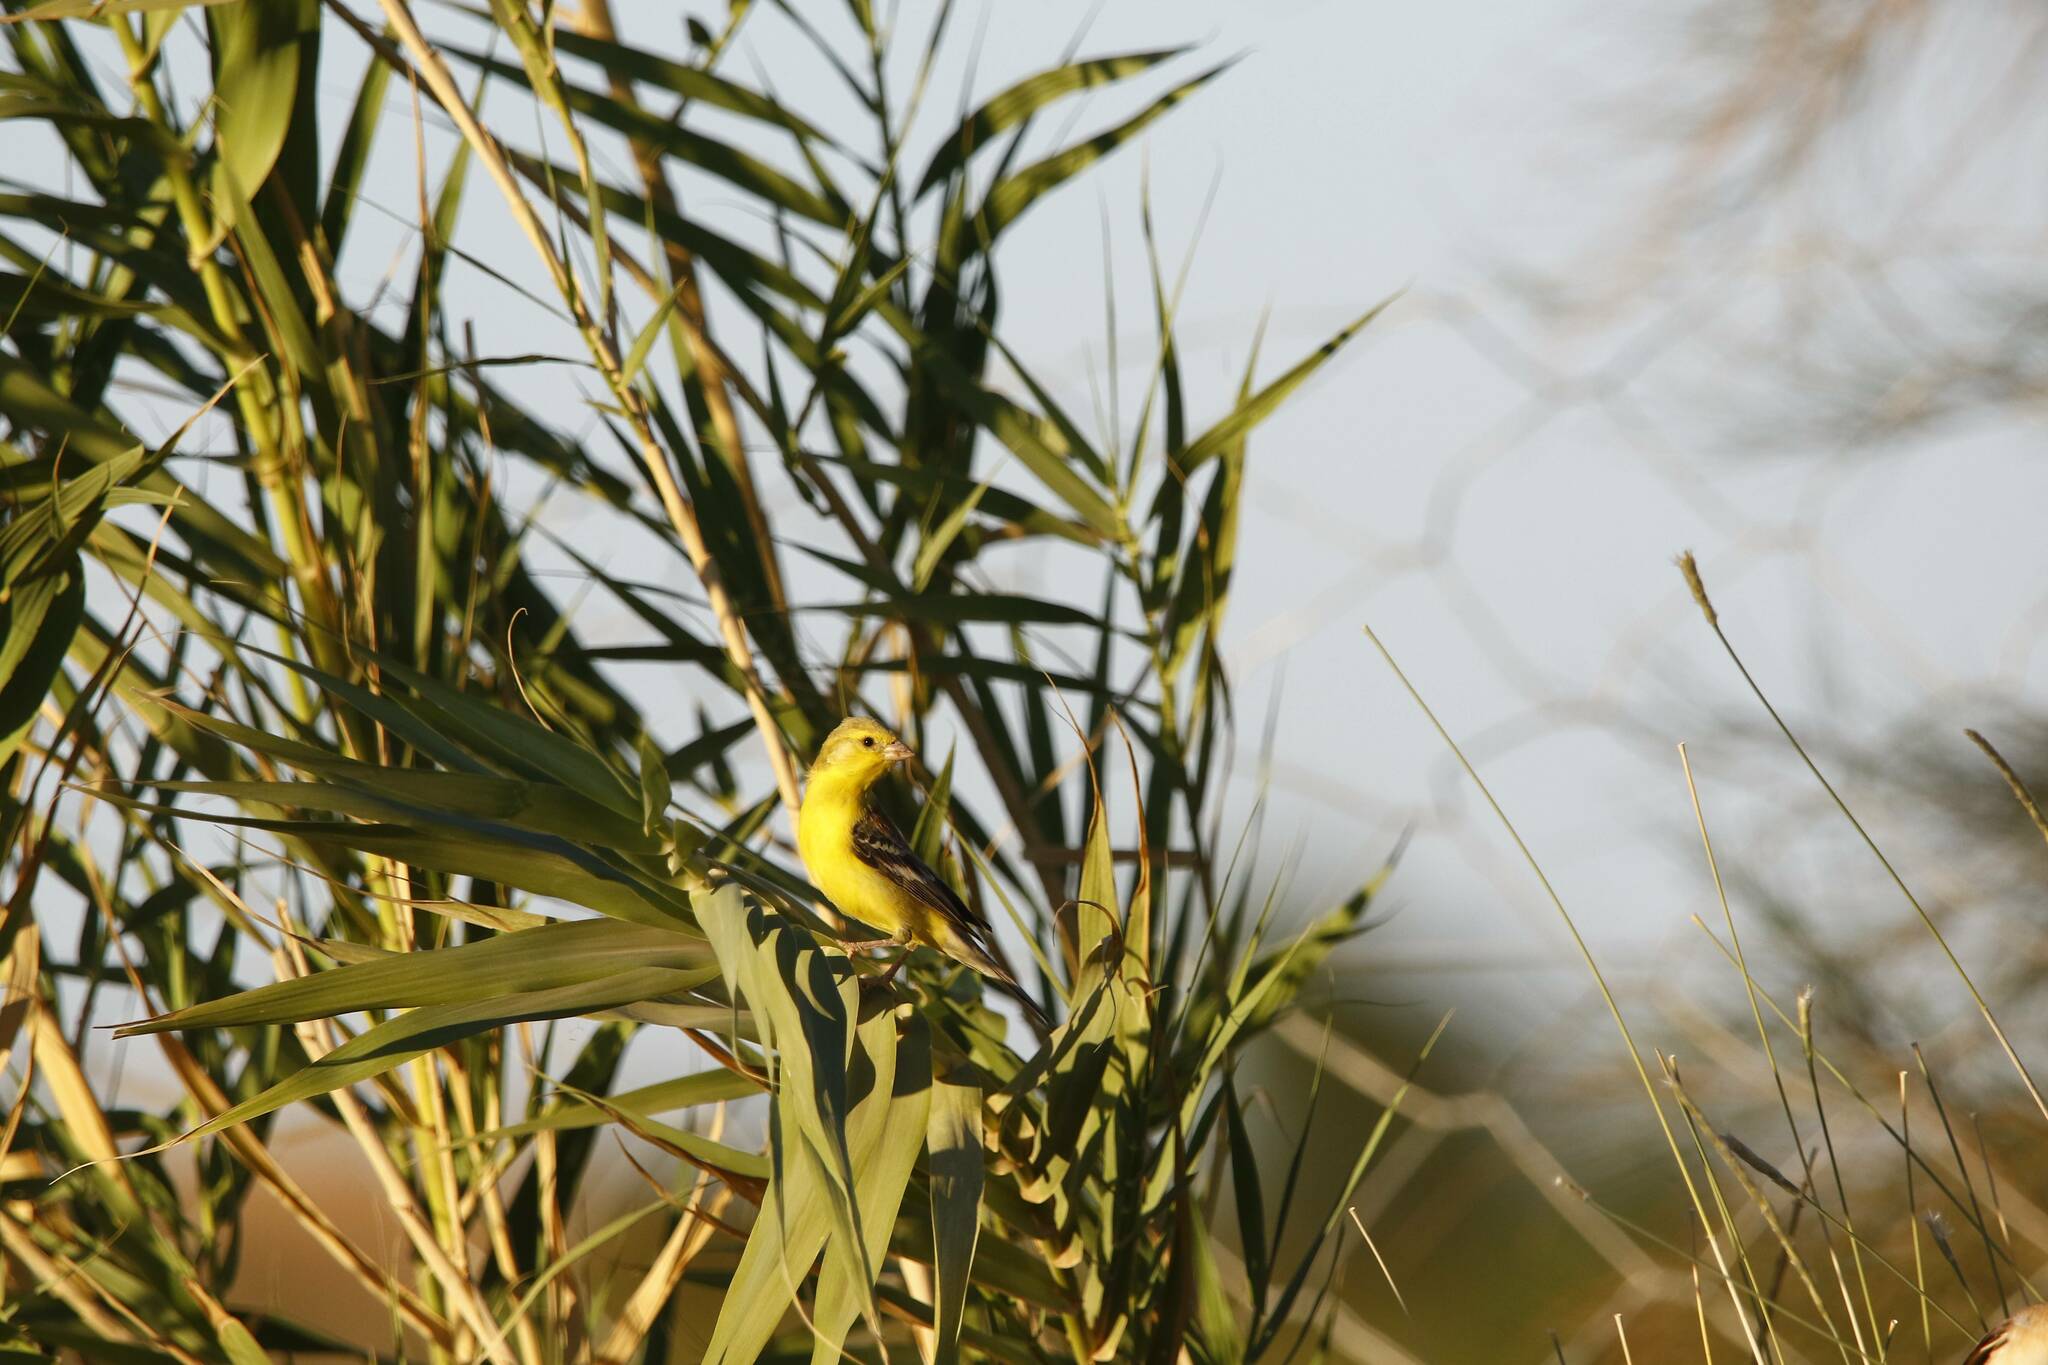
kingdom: Animalia
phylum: Chordata
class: Aves
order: Passeriformes
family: Passeridae
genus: Passer
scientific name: Passer luteus
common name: Sudan golden sparrow
